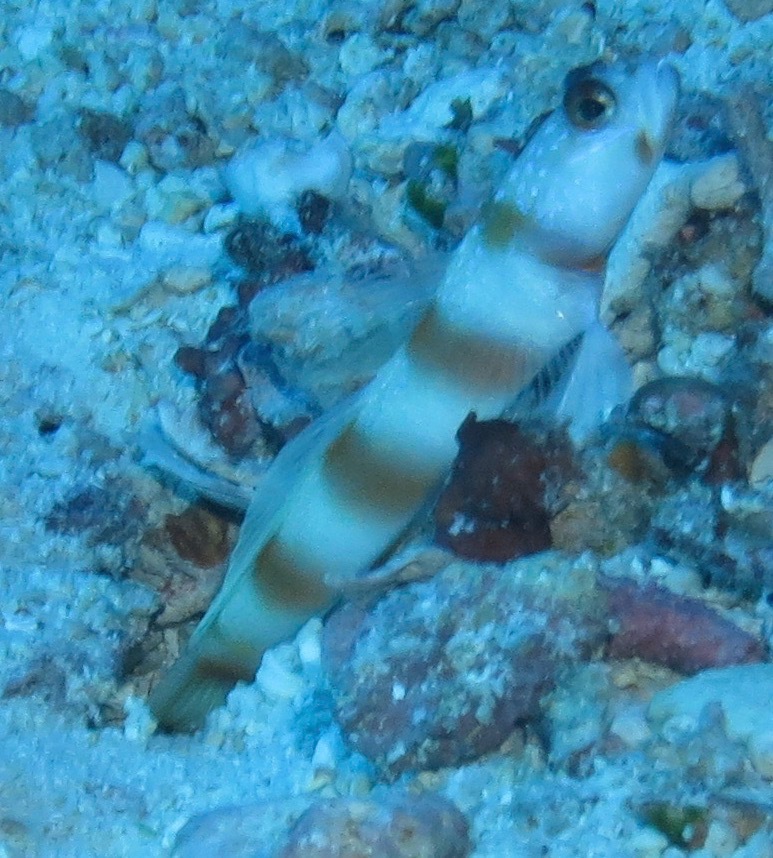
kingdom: Animalia
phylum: Chordata
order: Perciformes
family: Gobiidae
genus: Amblyeleotris
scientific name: Amblyeleotris ellipse
